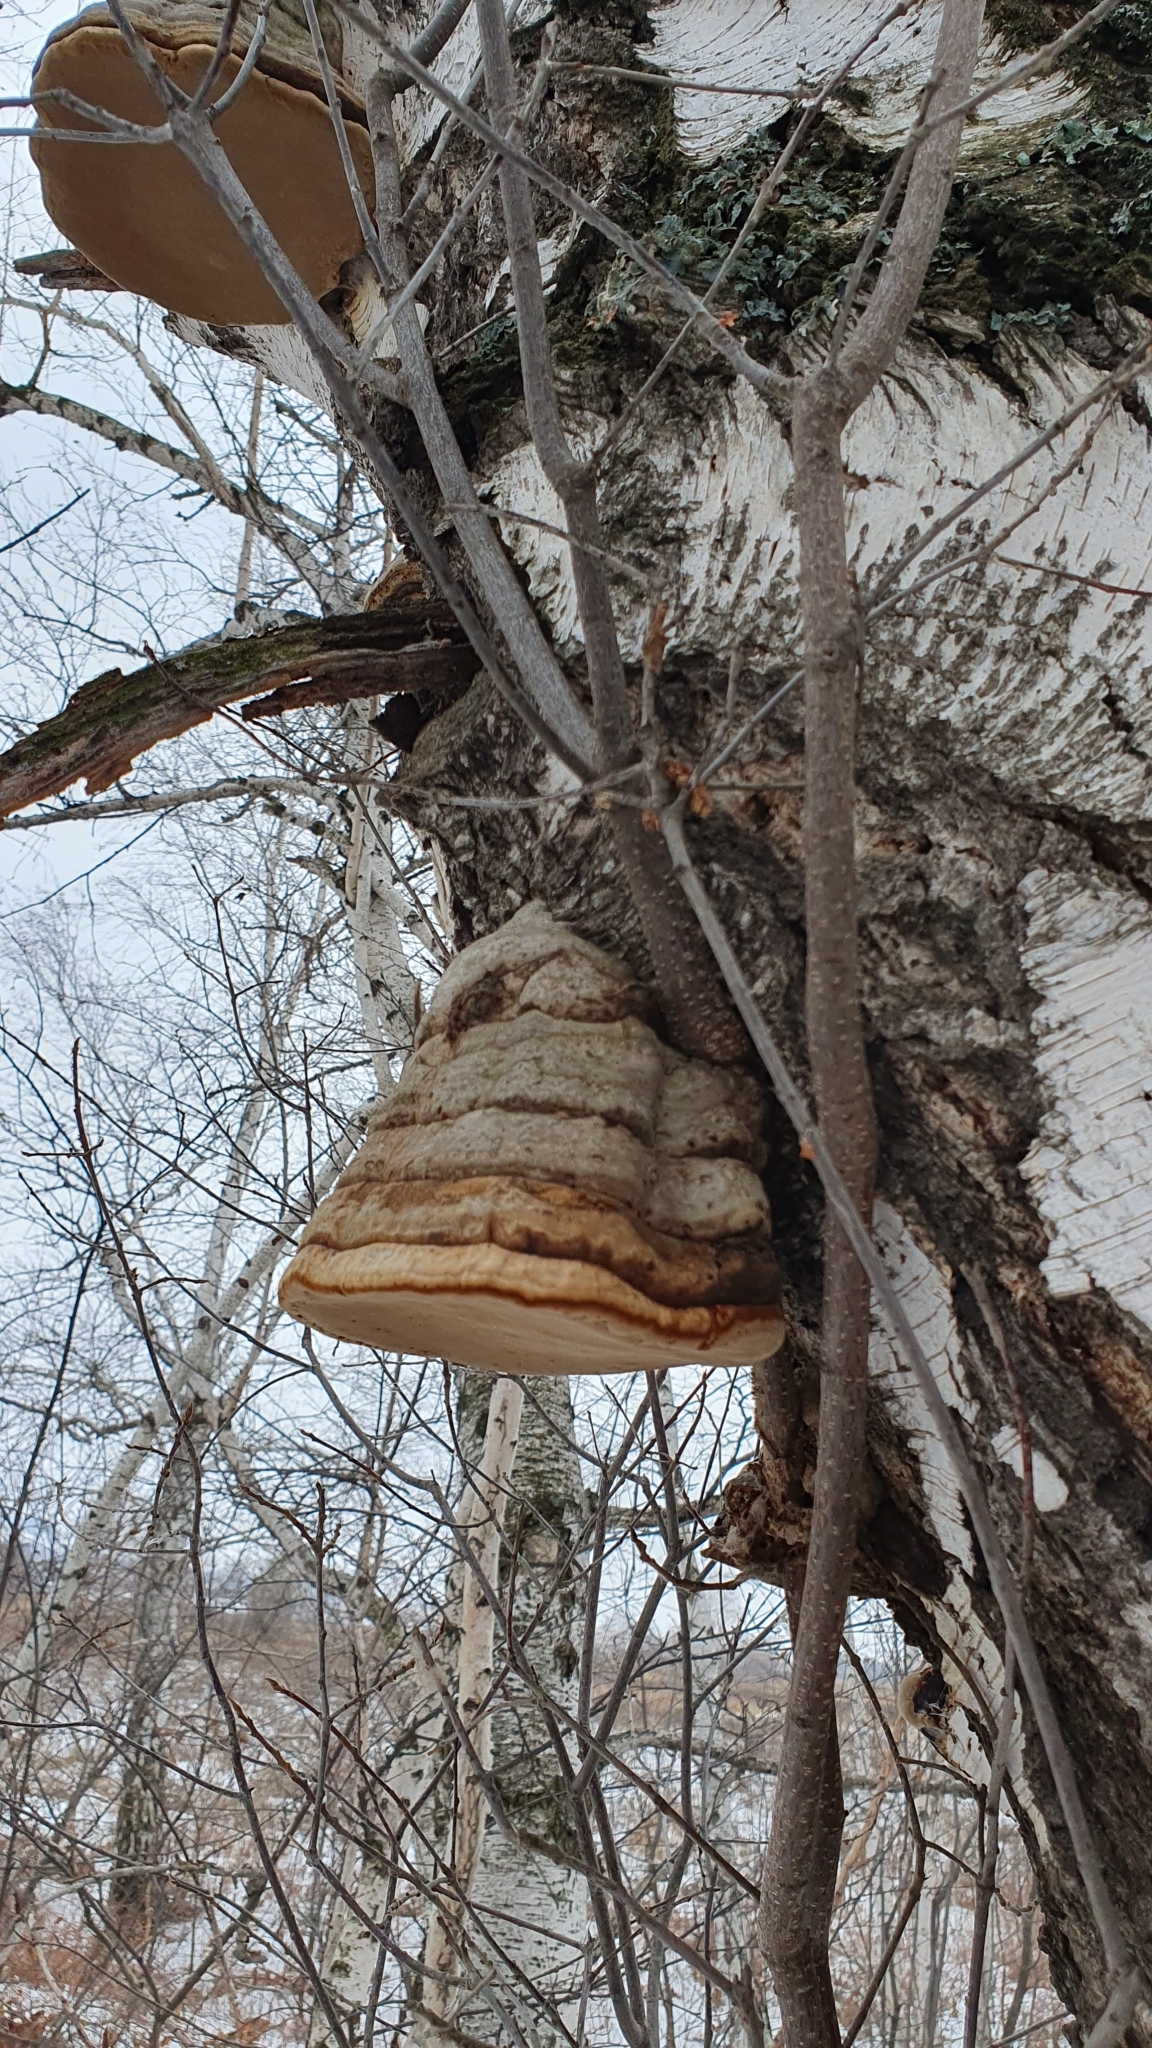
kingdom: Fungi
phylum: Basidiomycota
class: Agaricomycetes
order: Polyporales
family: Polyporaceae
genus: Fomes
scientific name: Fomes fomentarius
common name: Hoof fungus
